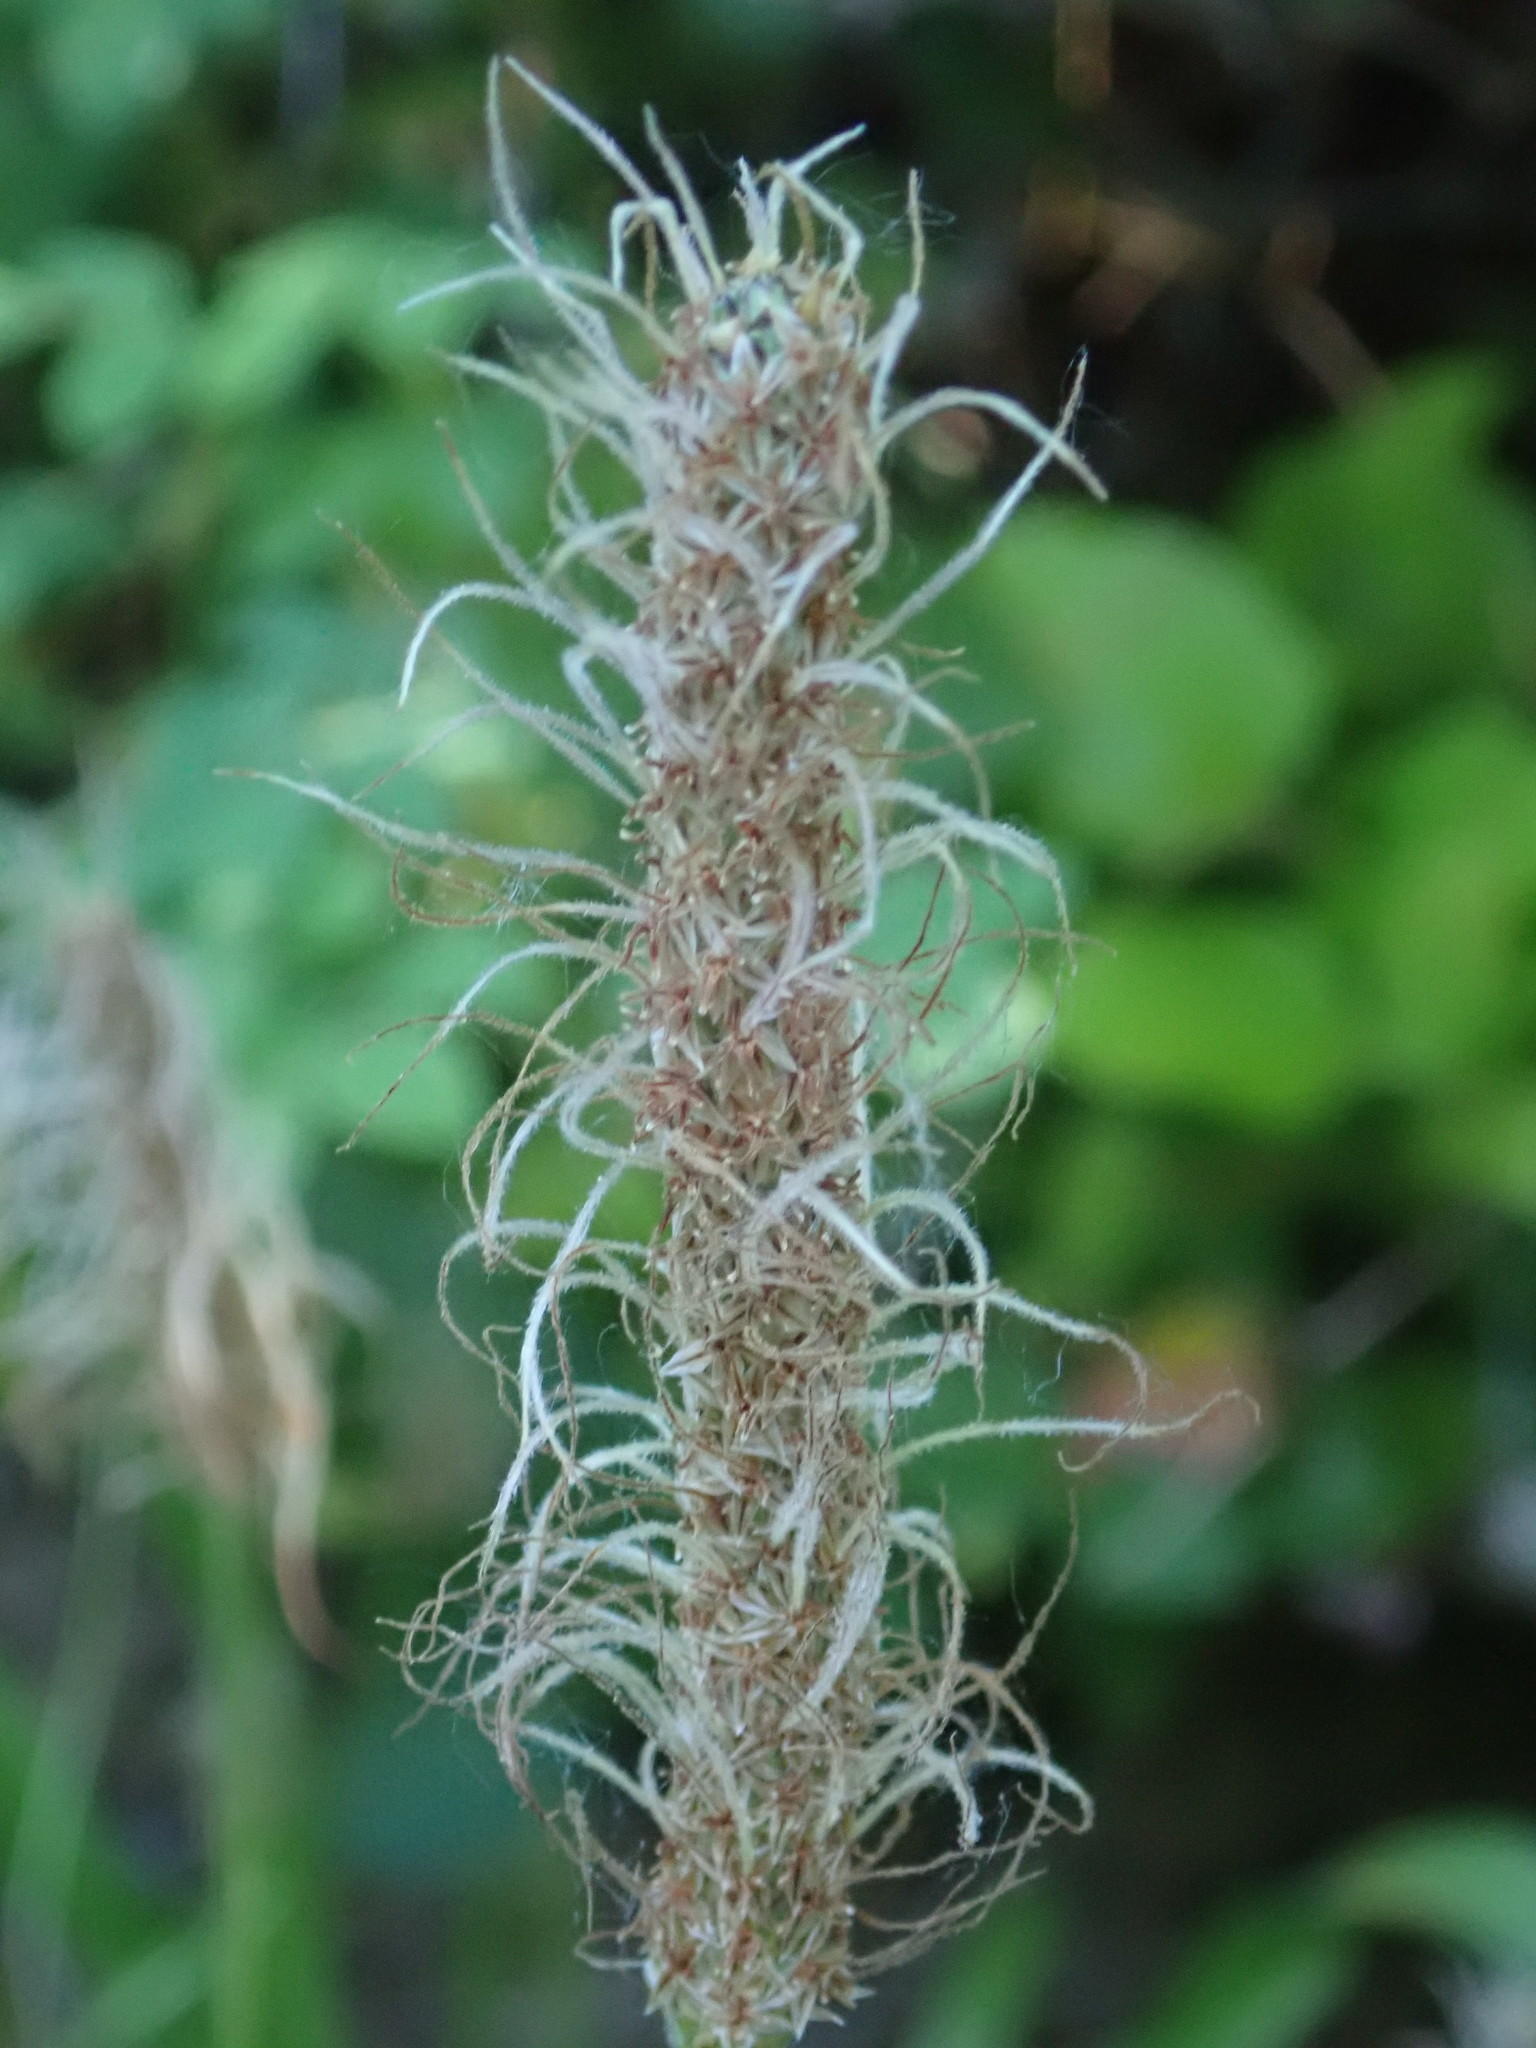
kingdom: Plantae
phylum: Tracheophyta
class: Magnoliopsida
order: Lamiales
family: Plantaginaceae
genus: Plantago
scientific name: Plantago lanceolata
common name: Ribwort plantain
